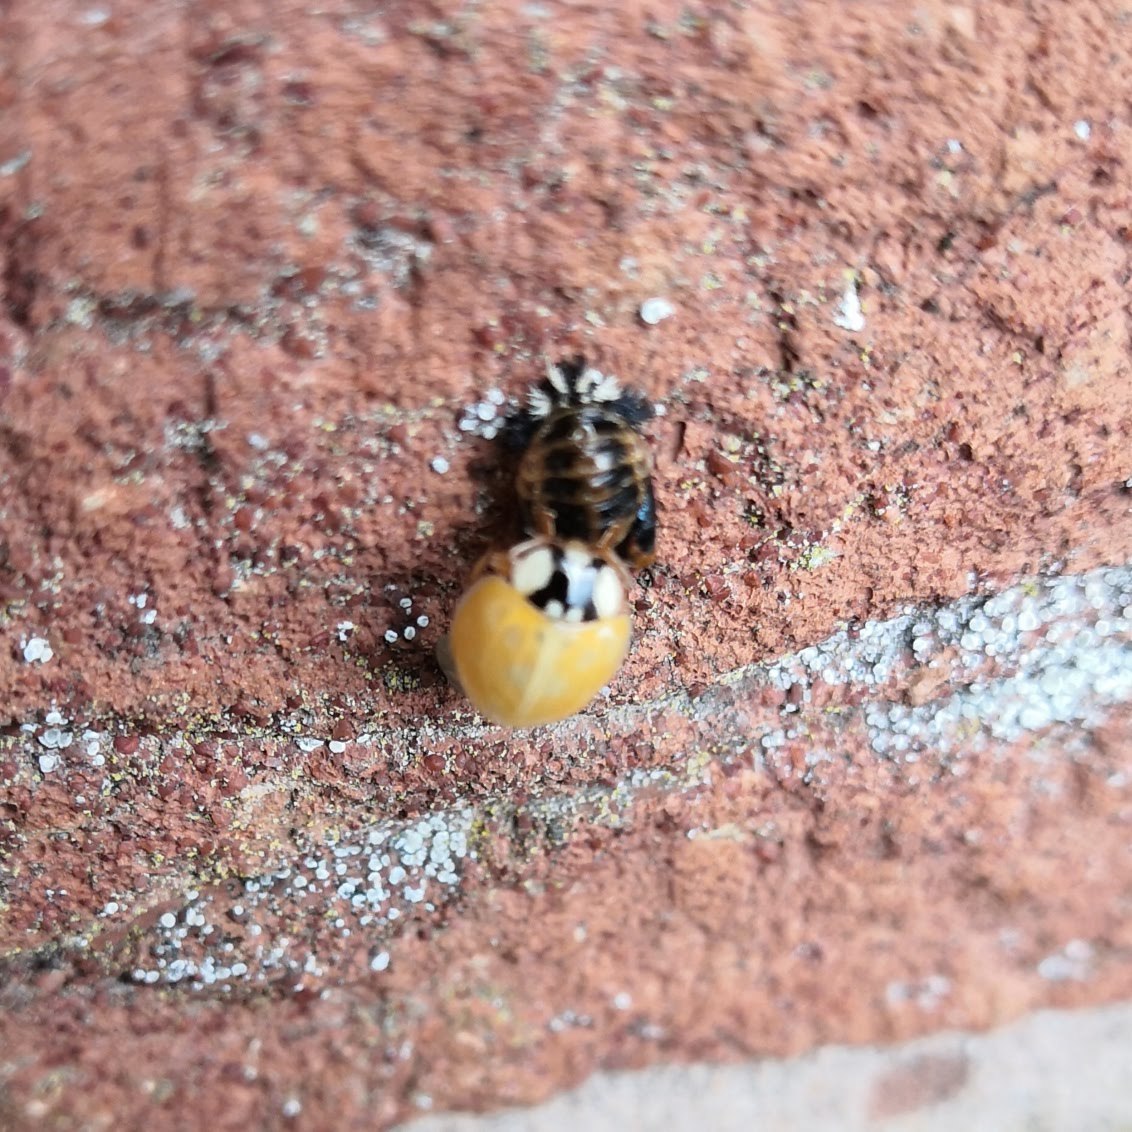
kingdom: Animalia
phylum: Arthropoda
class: Insecta
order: Coleoptera
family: Coccinellidae
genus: Harmonia
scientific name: Harmonia axyridis
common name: Harlequin ladybird
